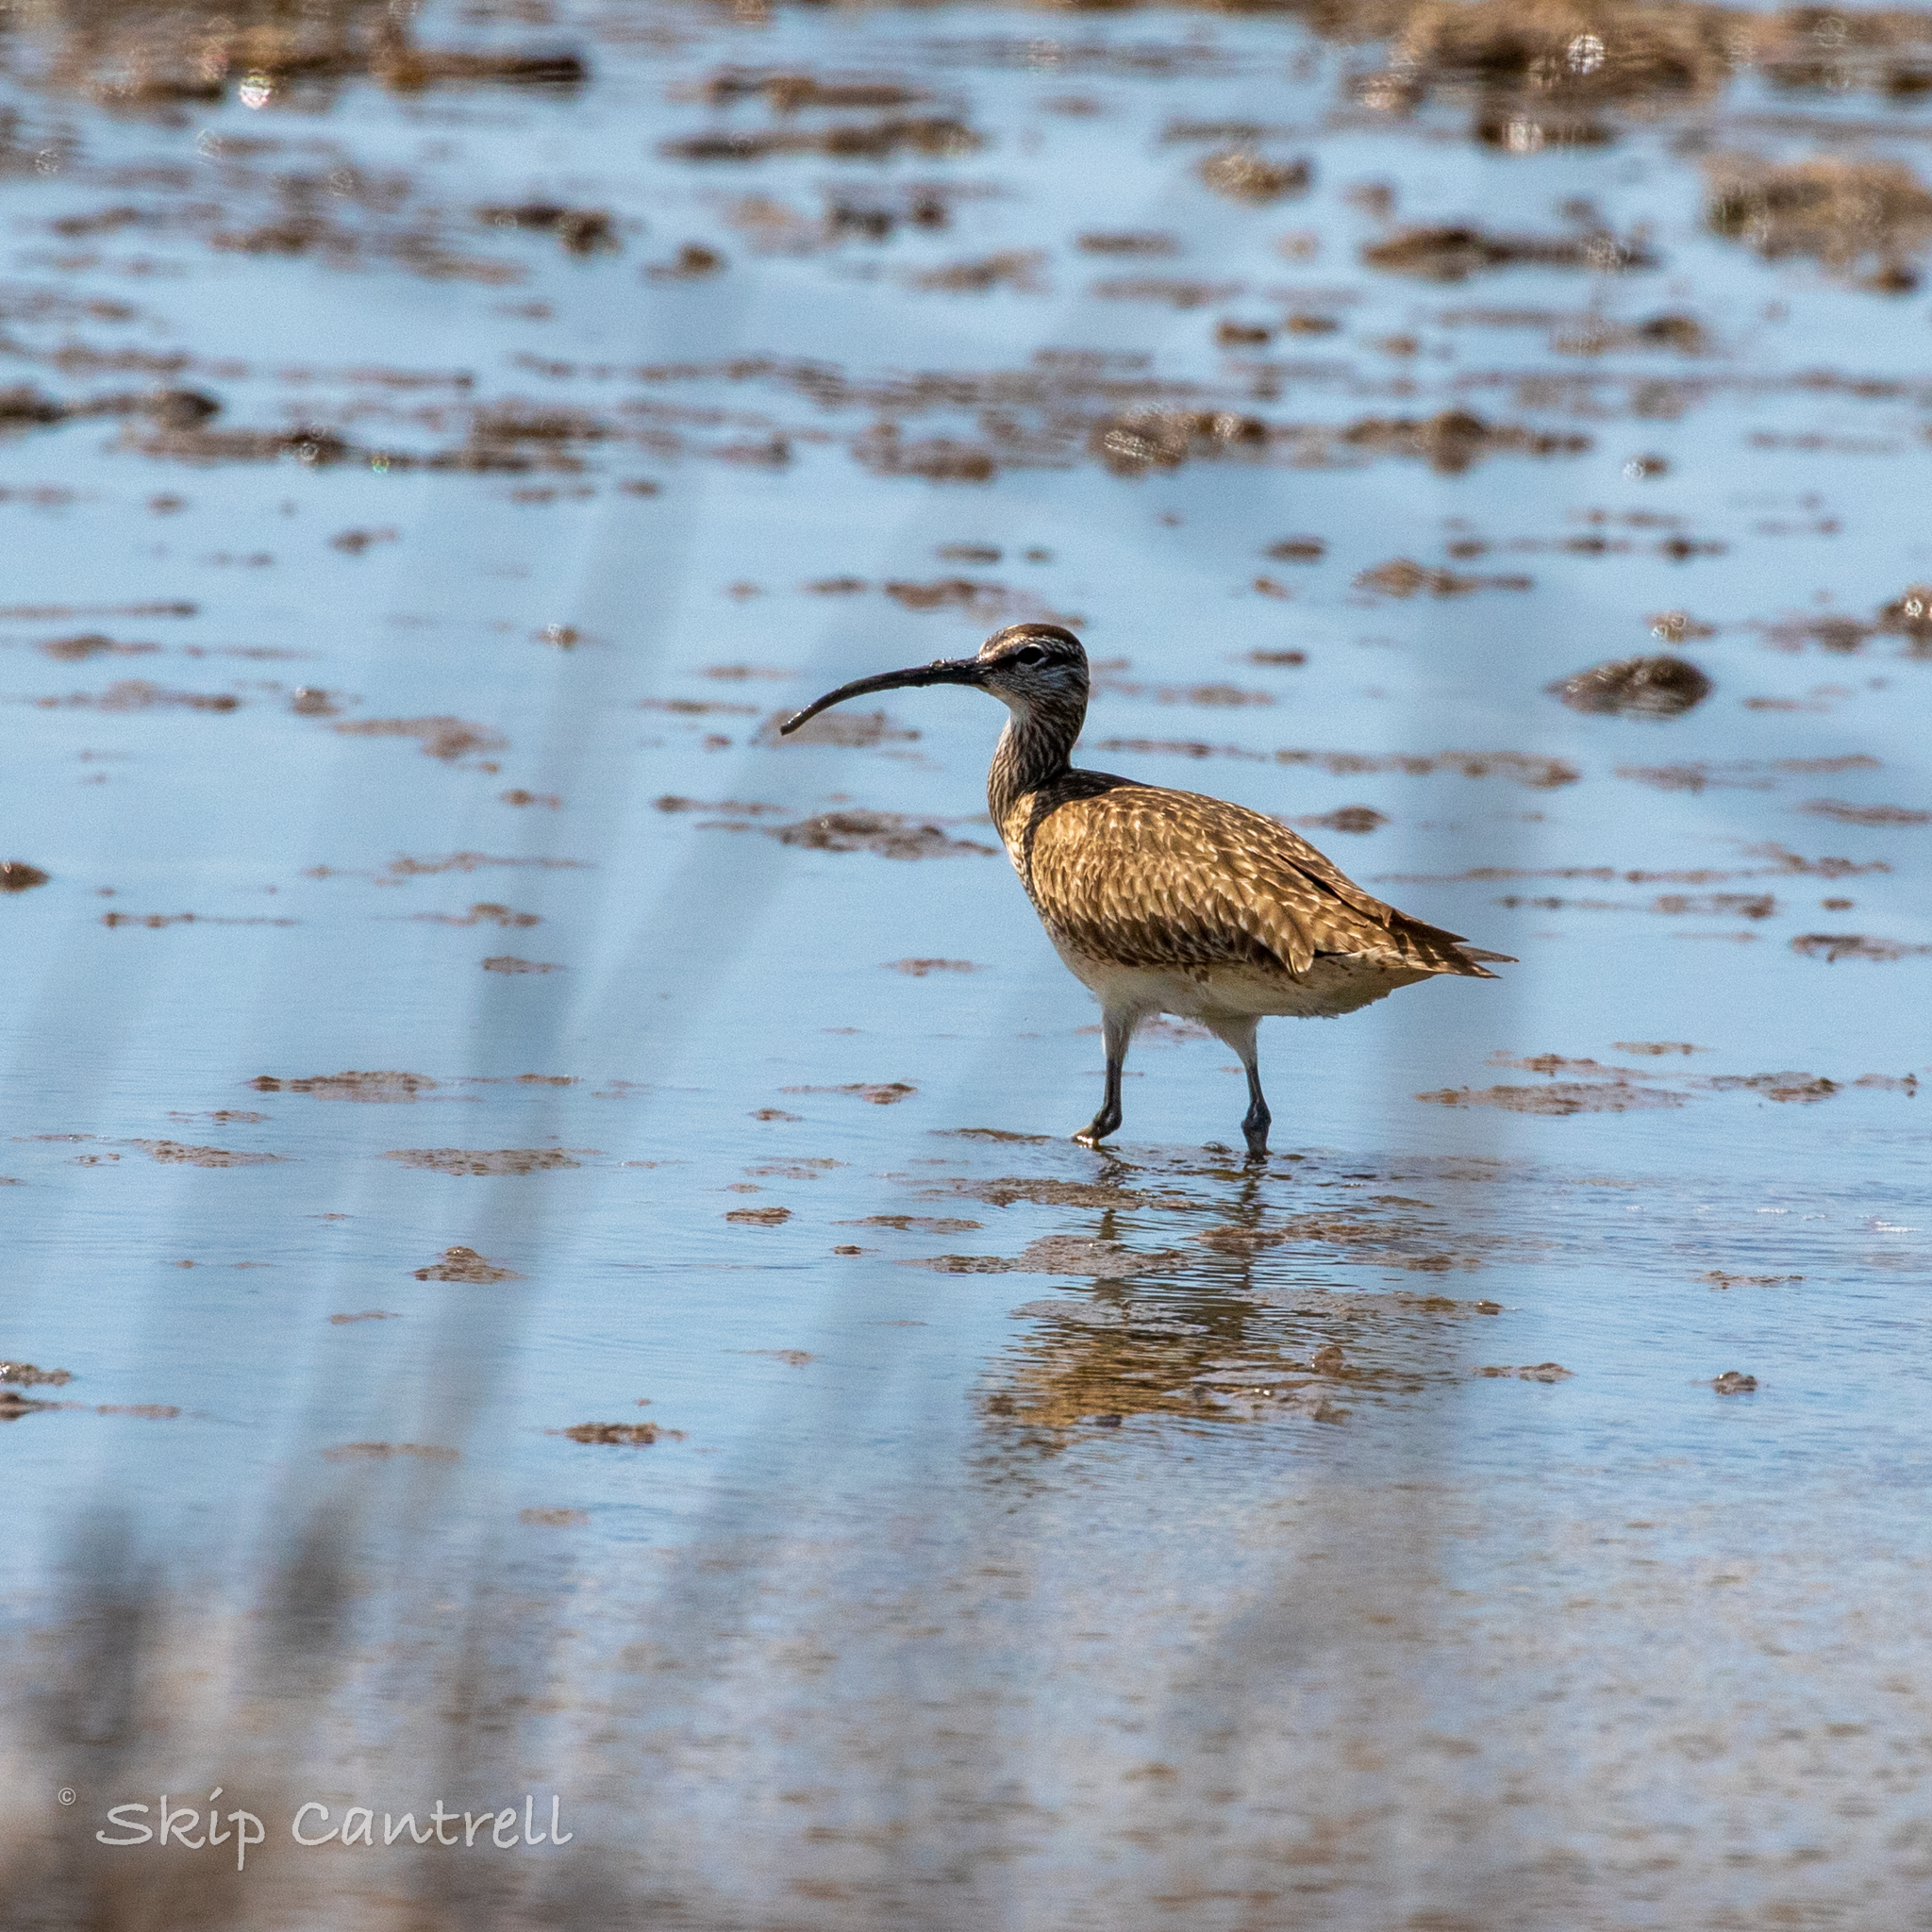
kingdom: Animalia
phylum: Chordata
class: Aves
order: Charadriiformes
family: Scolopacidae
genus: Numenius
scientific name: Numenius phaeopus
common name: Whimbrel
